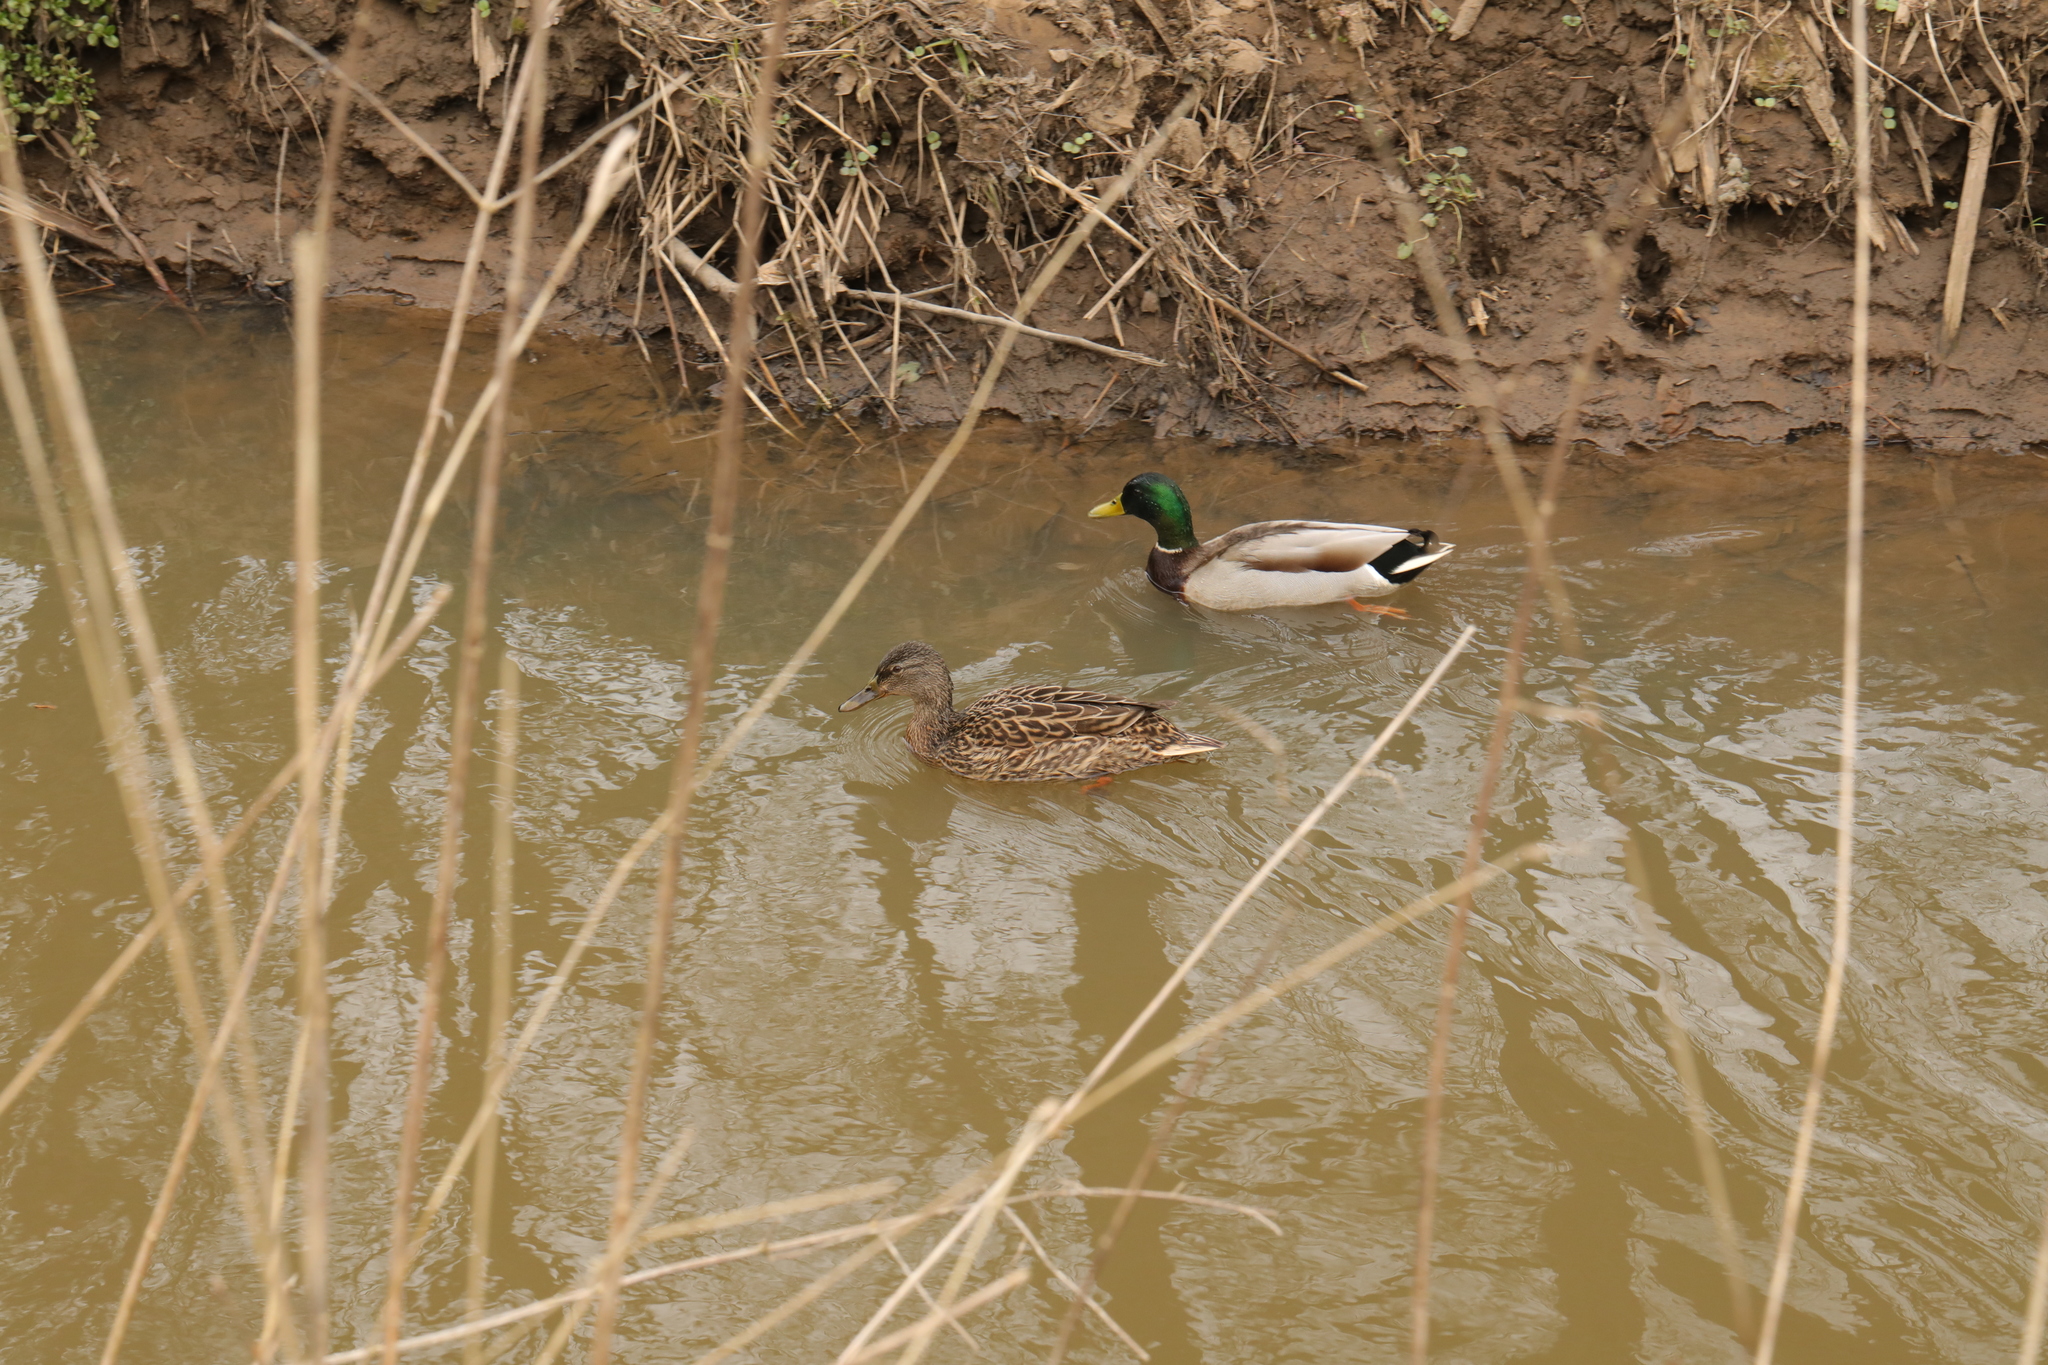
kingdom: Animalia
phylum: Chordata
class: Aves
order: Anseriformes
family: Anatidae
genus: Anas
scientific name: Anas platyrhynchos
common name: Mallard
